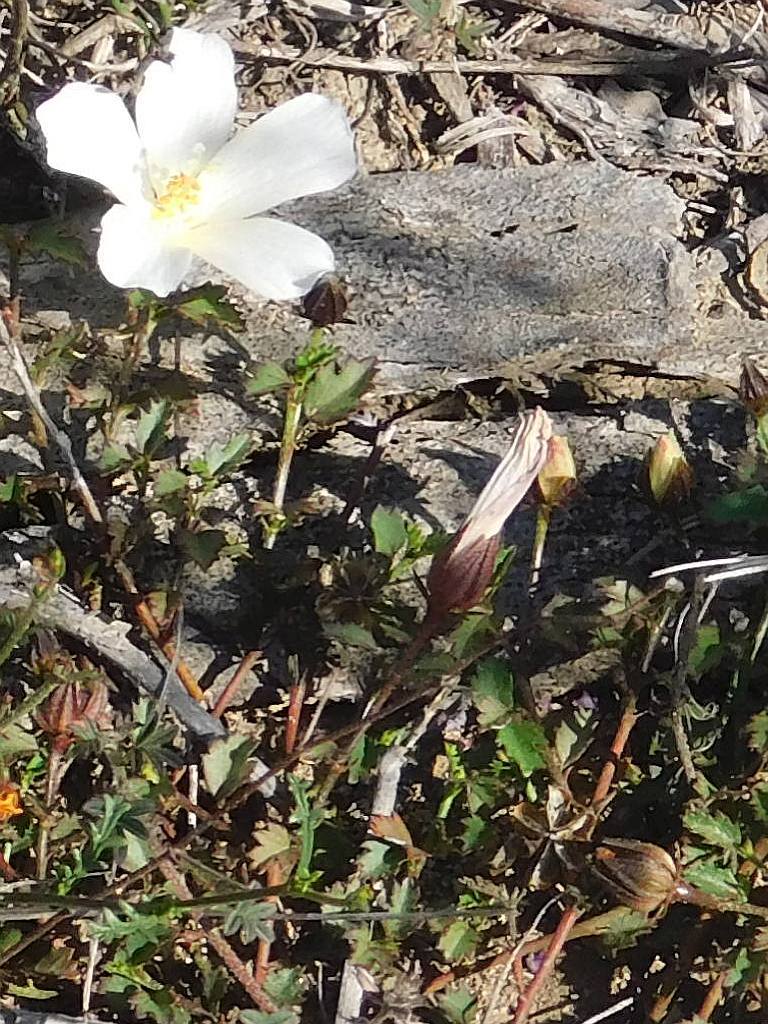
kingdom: Plantae
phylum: Tracheophyta
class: Magnoliopsida
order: Malvales
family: Malvaceae
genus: Hibiscus
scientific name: Hibiscus pusillus
